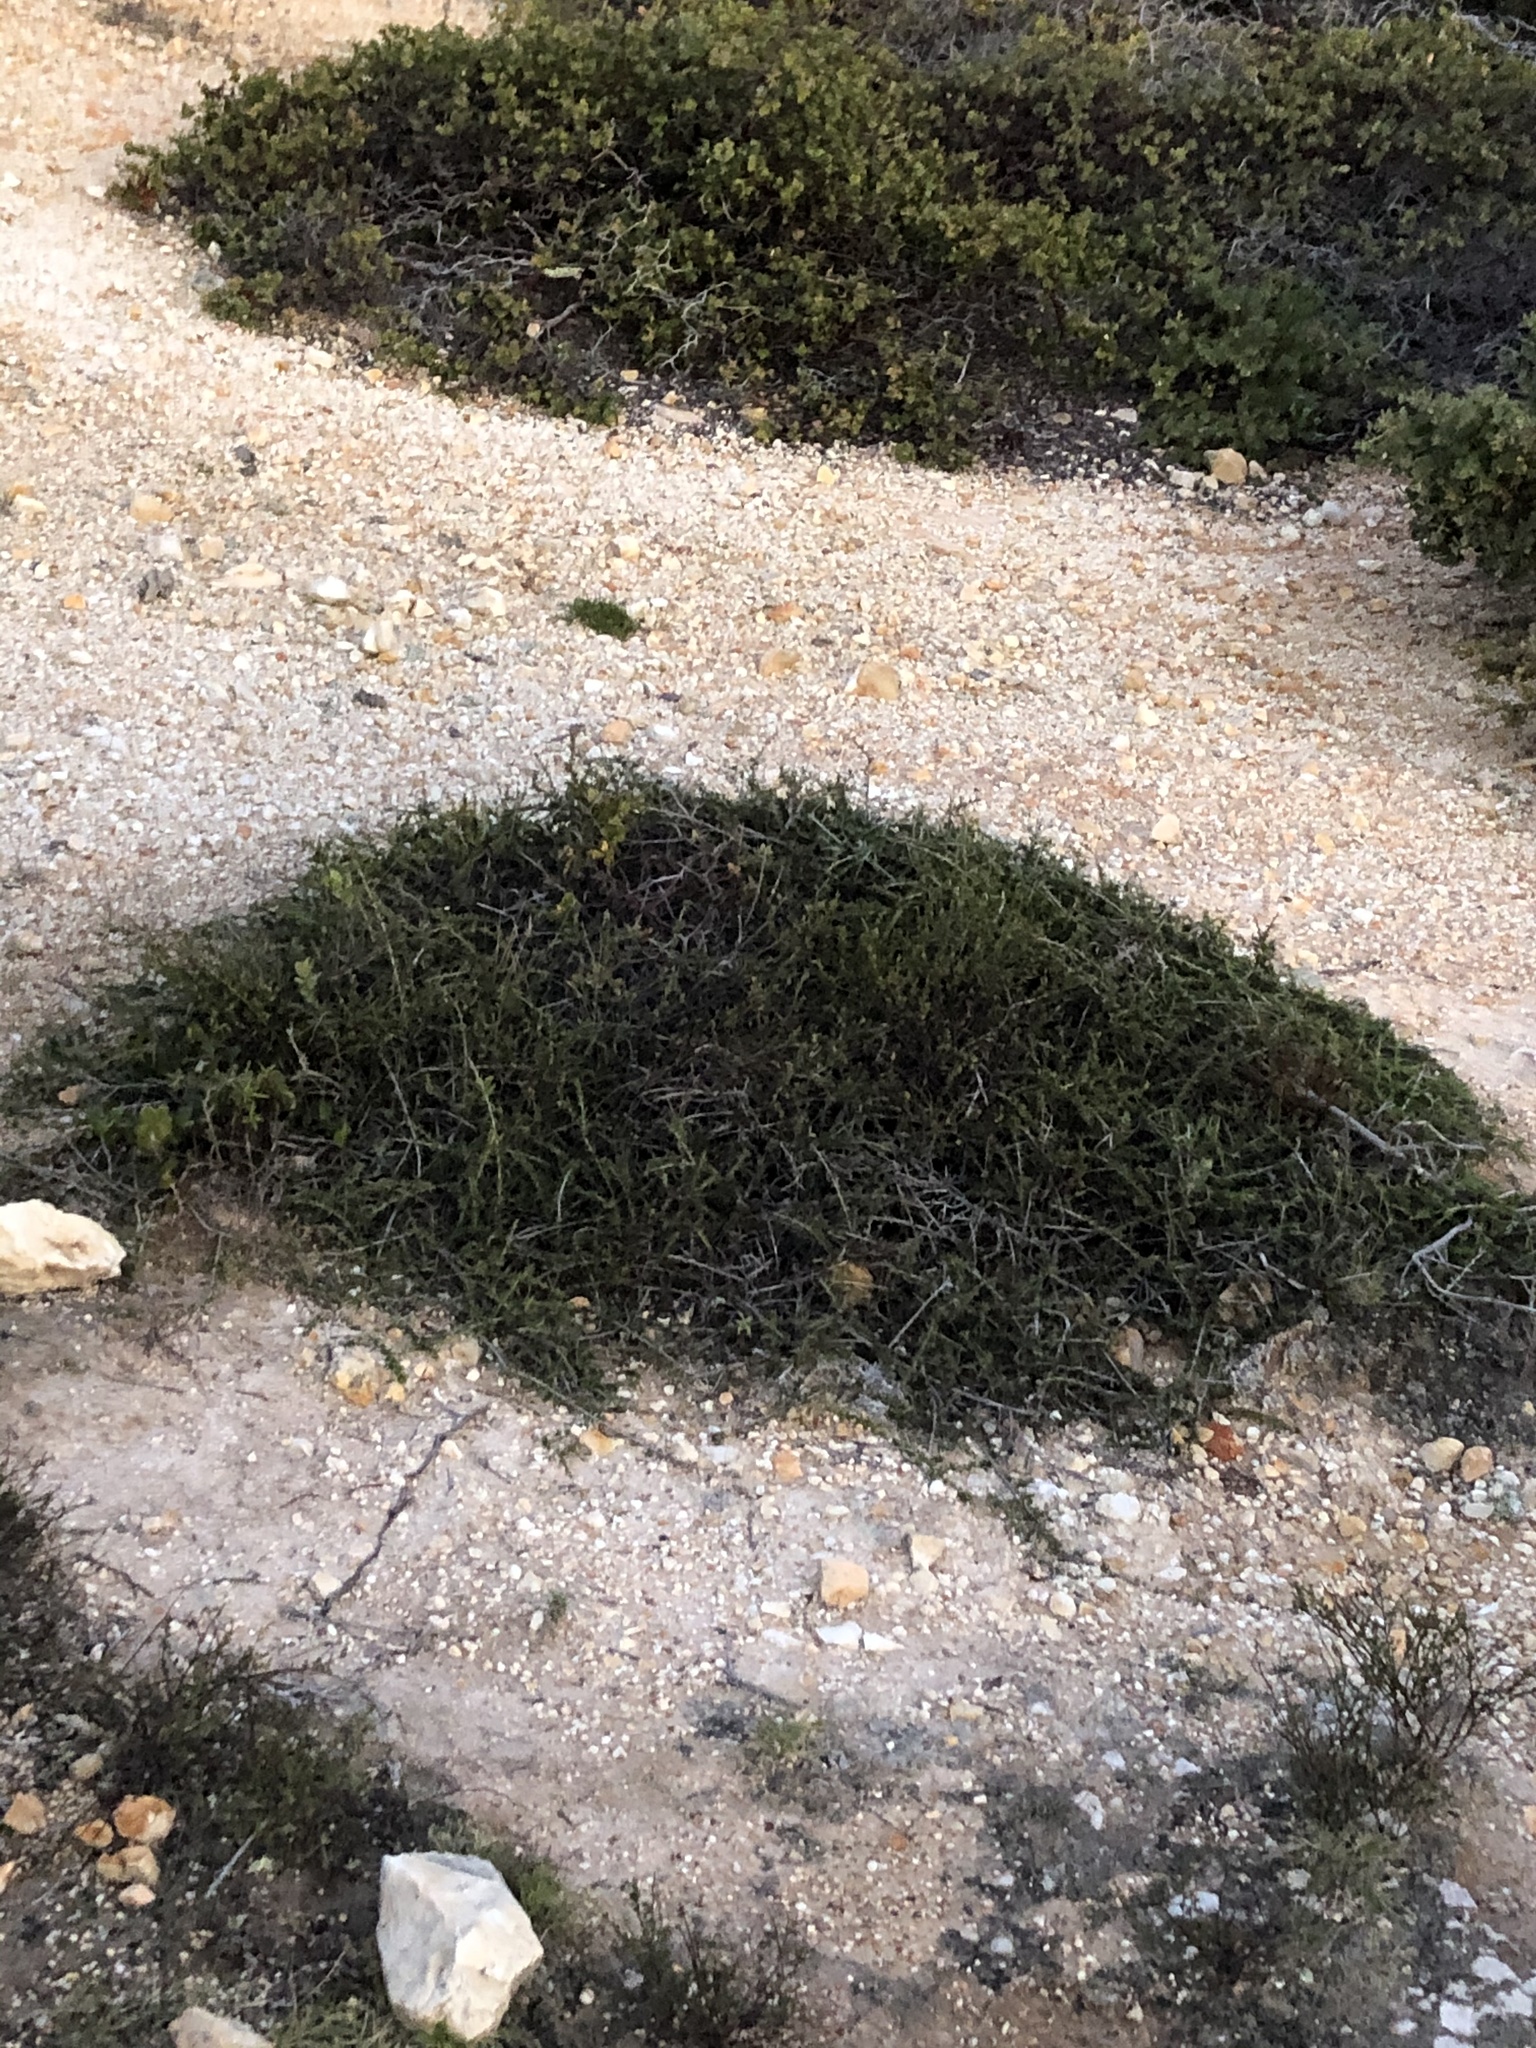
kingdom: Plantae
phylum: Tracheophyta
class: Magnoliopsida
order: Rosales
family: Rosaceae
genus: Adenostoma
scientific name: Adenostoma fasciculatum
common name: Chamise
